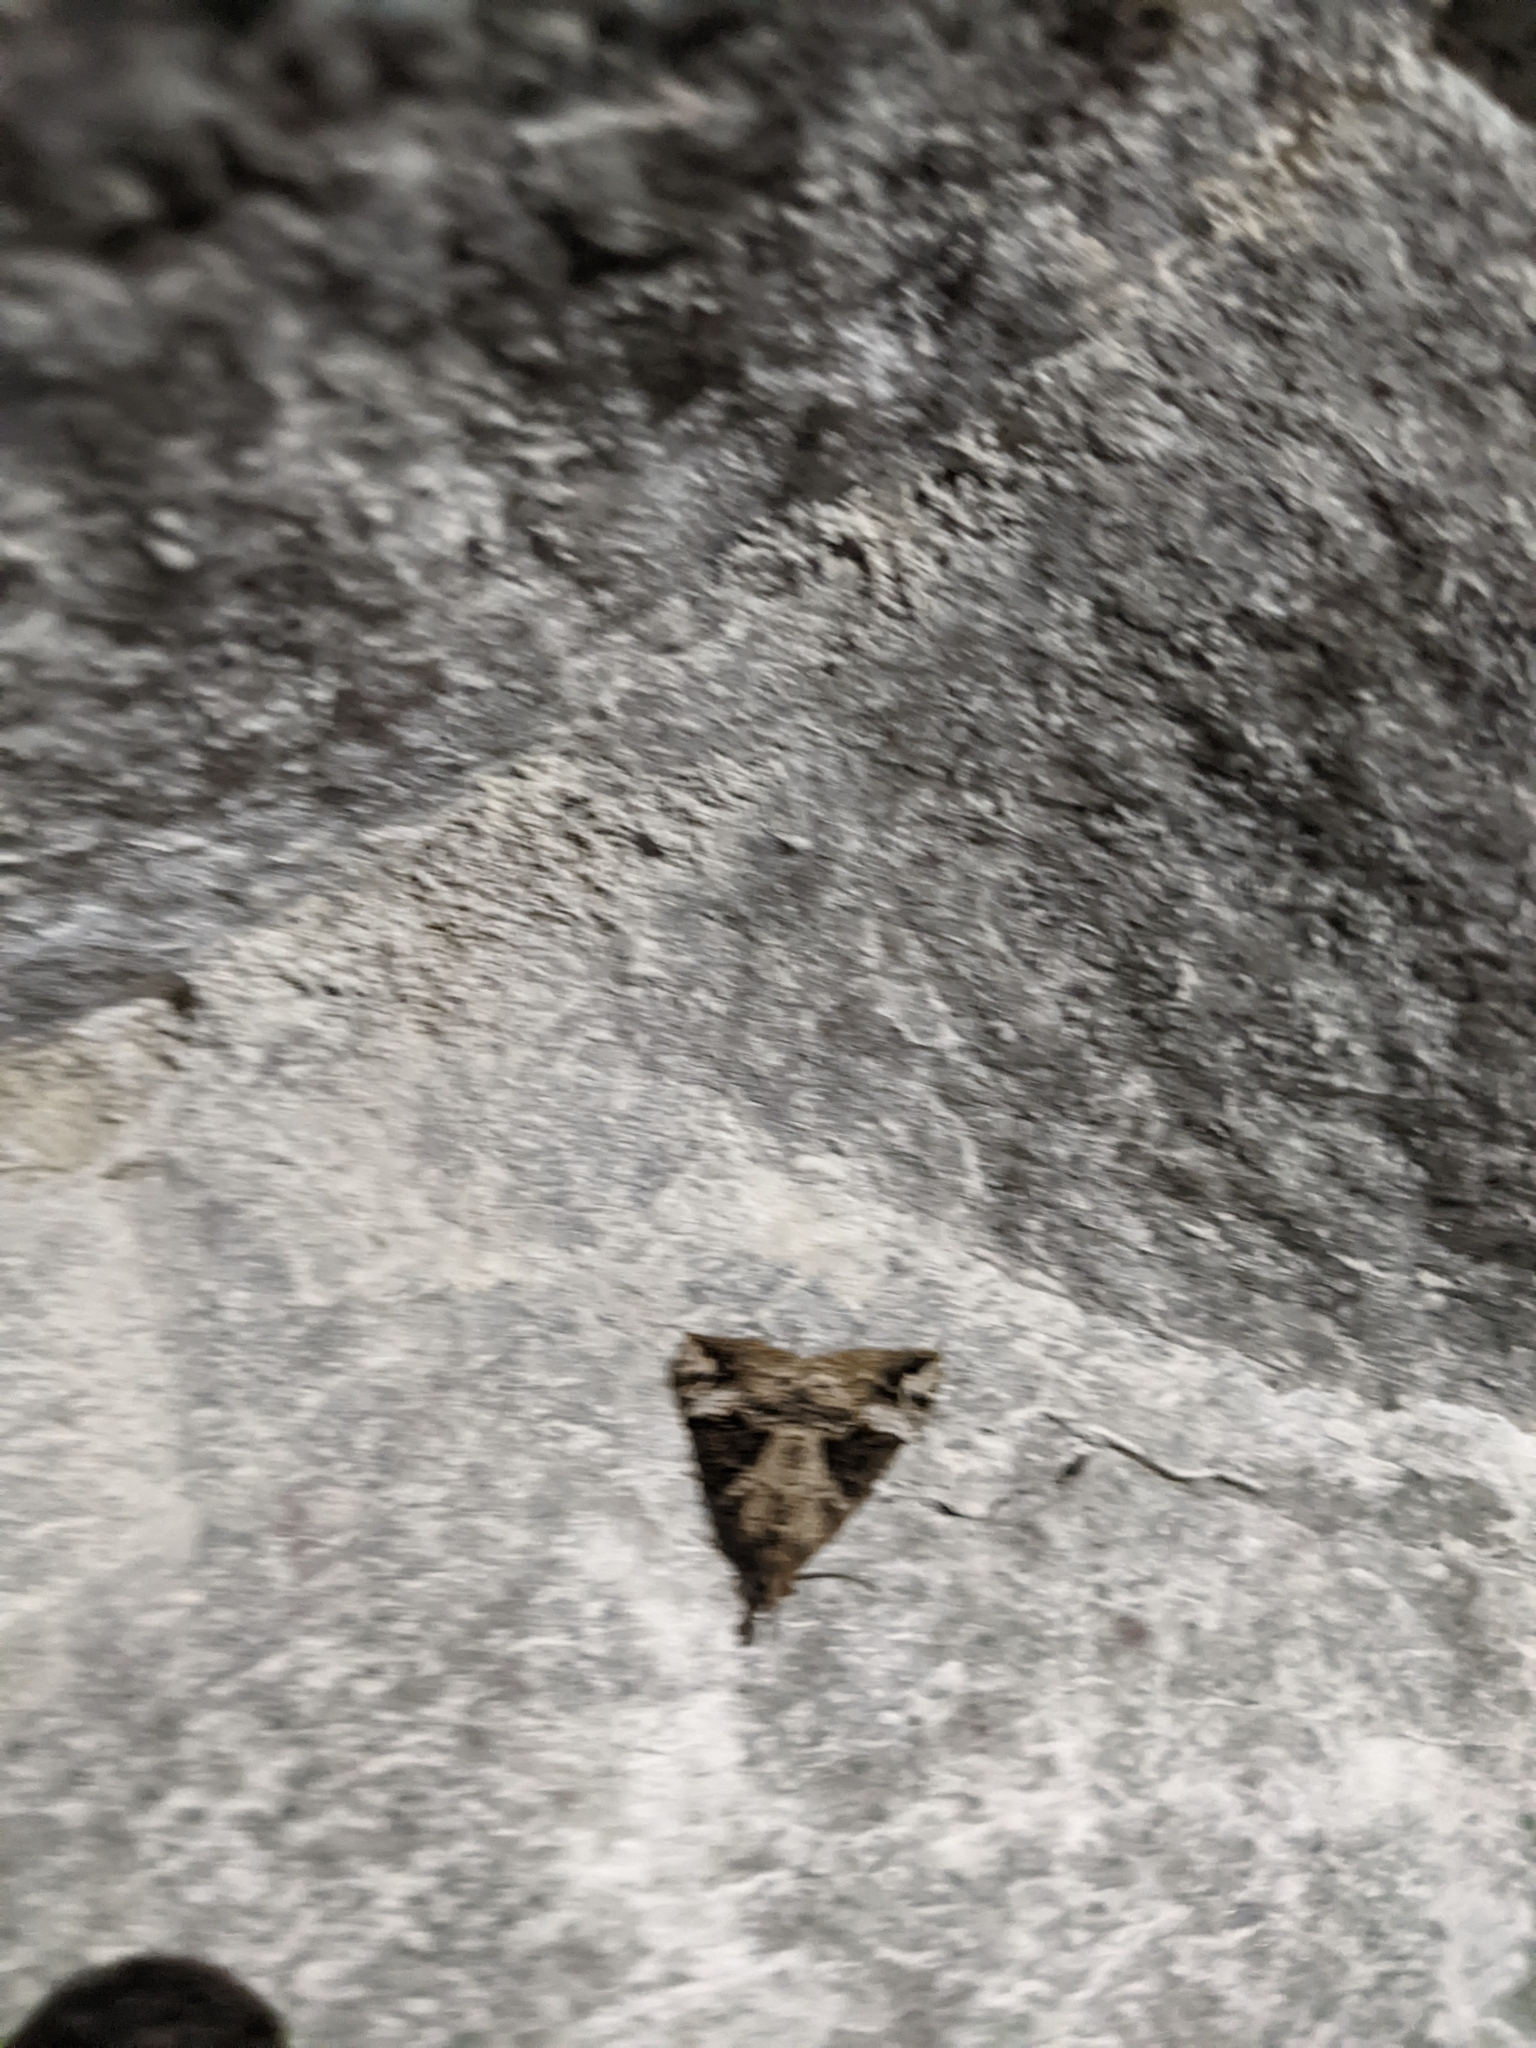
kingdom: Animalia
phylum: Arthropoda
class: Insecta
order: Lepidoptera
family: Erebidae
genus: Hypena
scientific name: Hypena obsitalis
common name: Bloxworth snout
